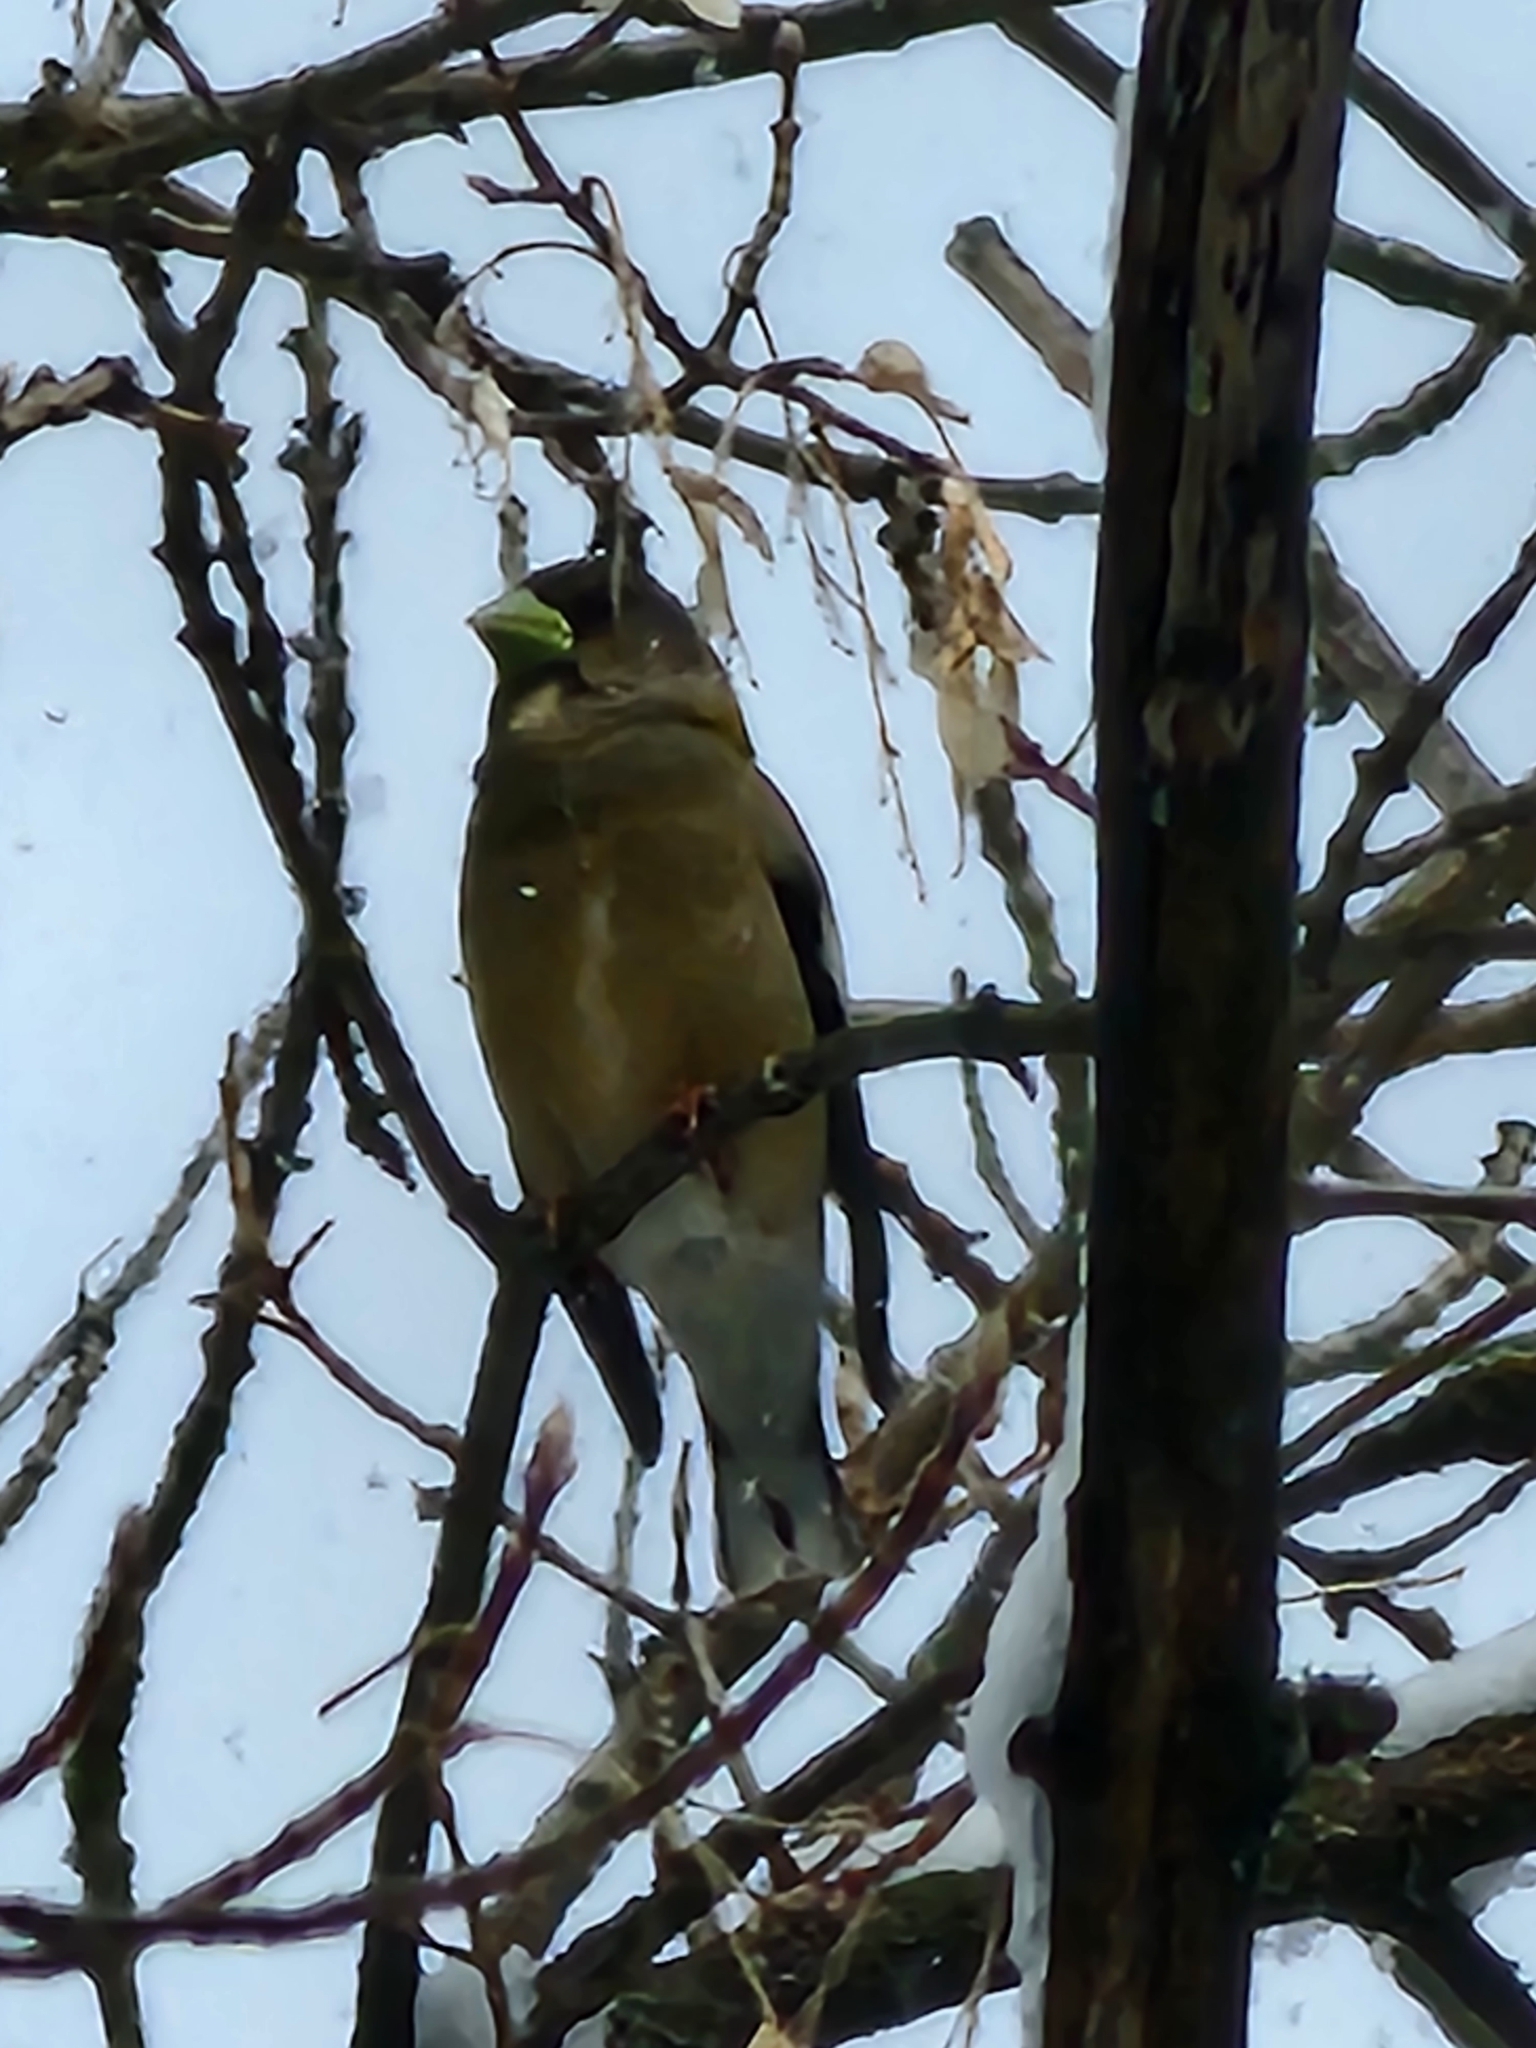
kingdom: Animalia
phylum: Chordata
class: Aves
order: Passeriformes
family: Fringillidae
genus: Hesperiphona
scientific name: Hesperiphona vespertina
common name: Evening grosbeak
